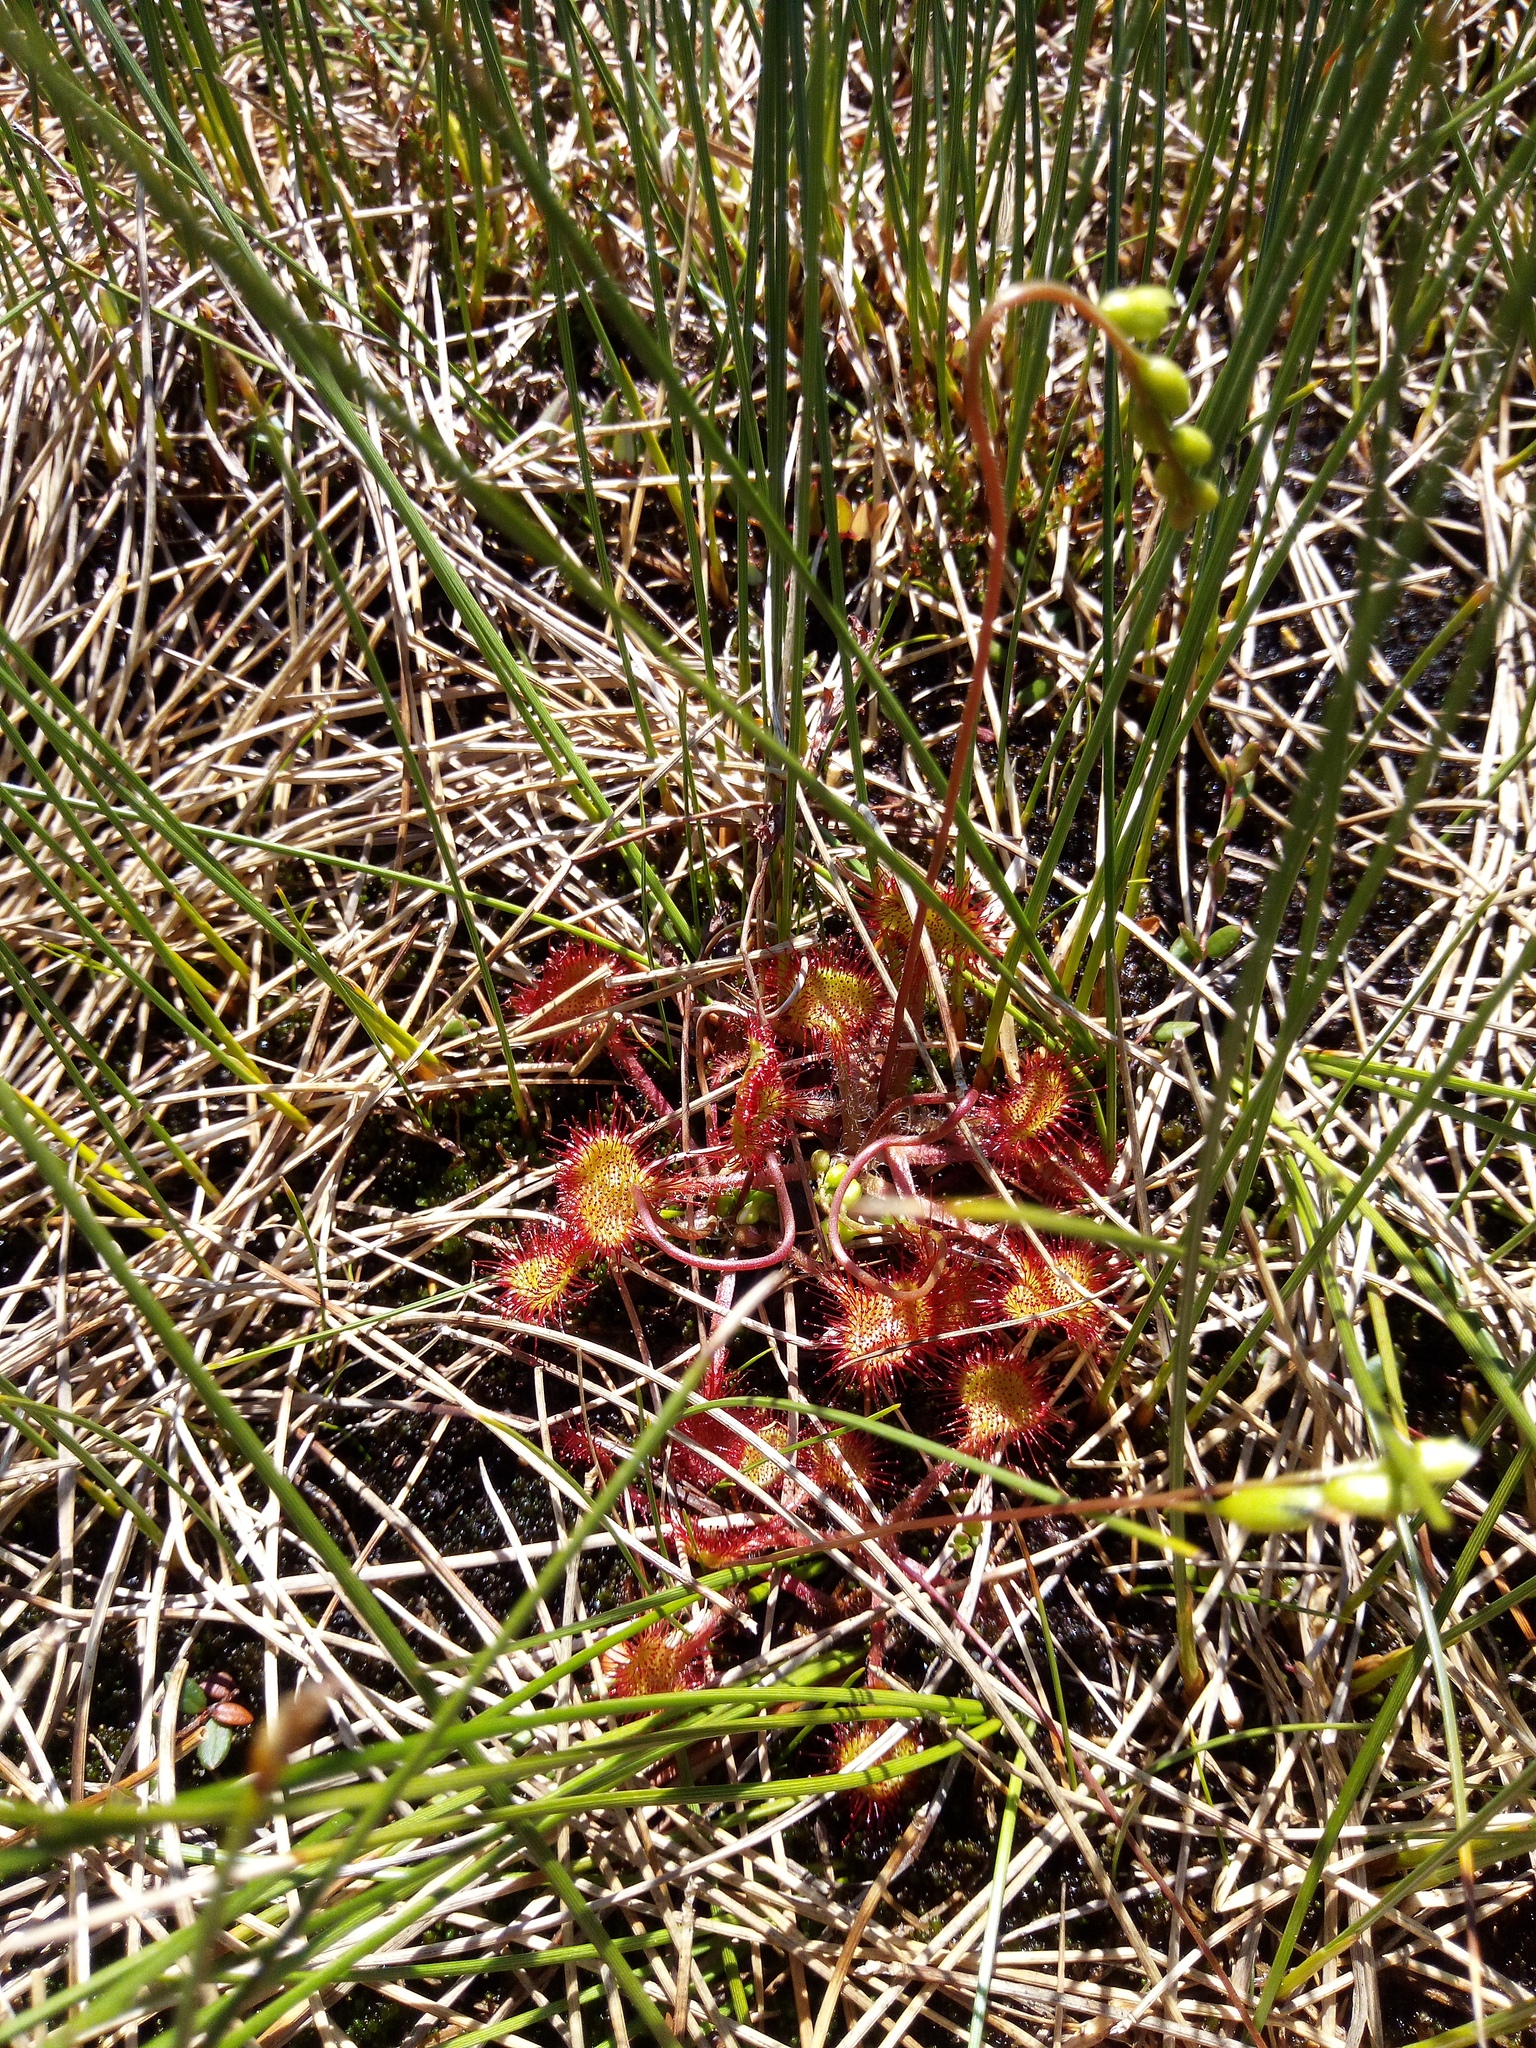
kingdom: Plantae
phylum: Tracheophyta
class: Magnoliopsida
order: Caryophyllales
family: Droseraceae
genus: Drosera
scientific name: Drosera rotundifolia
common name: Round-leaved sundew
